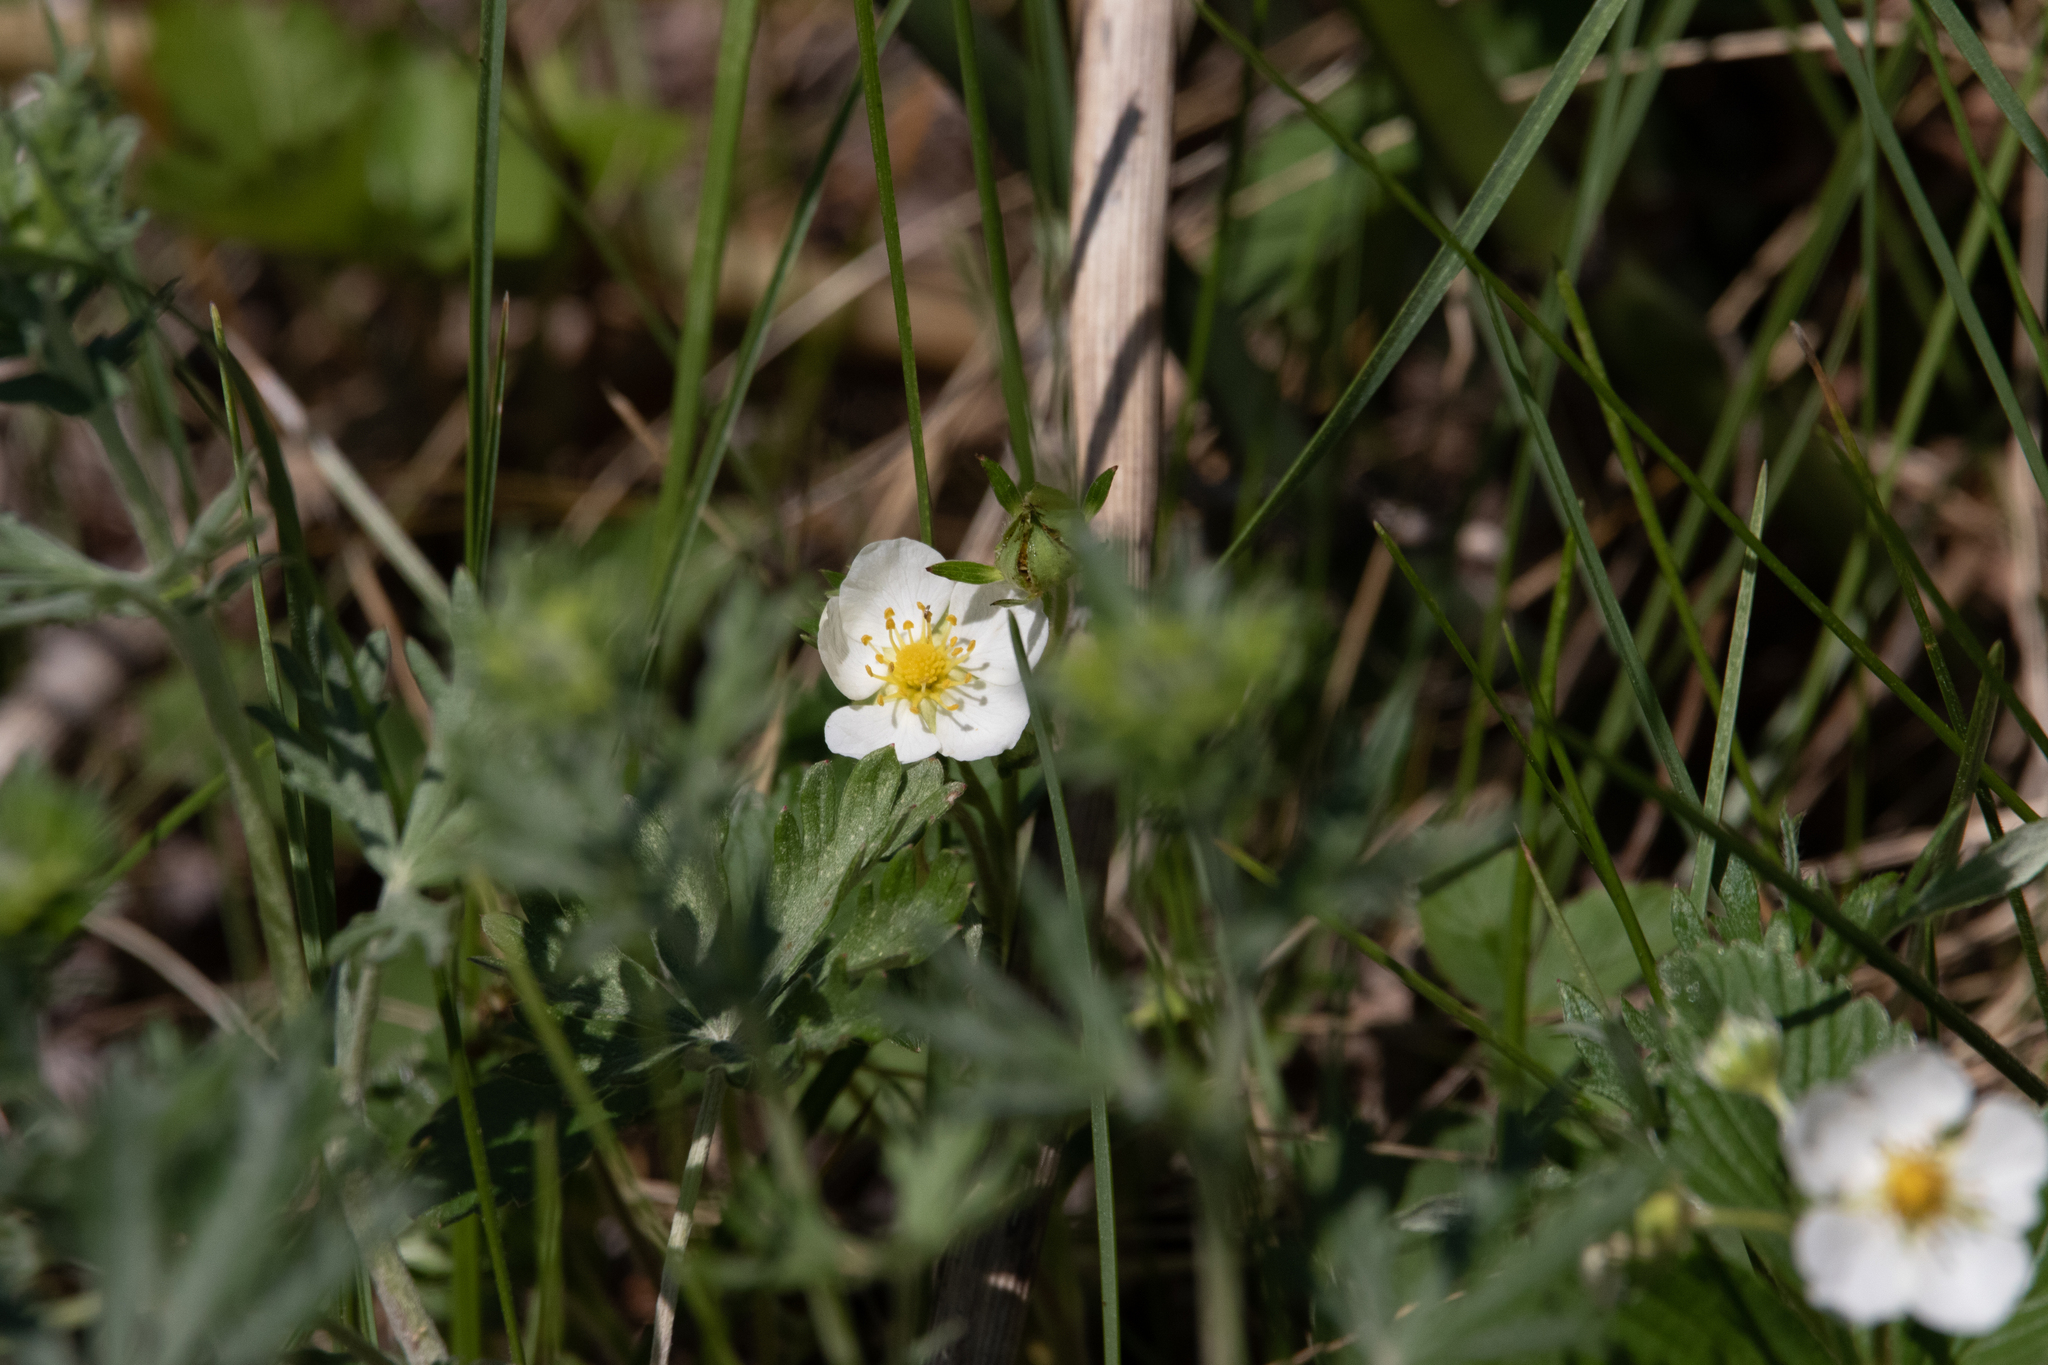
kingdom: Plantae
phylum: Tracheophyta
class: Magnoliopsida
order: Rosales
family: Rosaceae
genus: Fragaria
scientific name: Fragaria viridis
